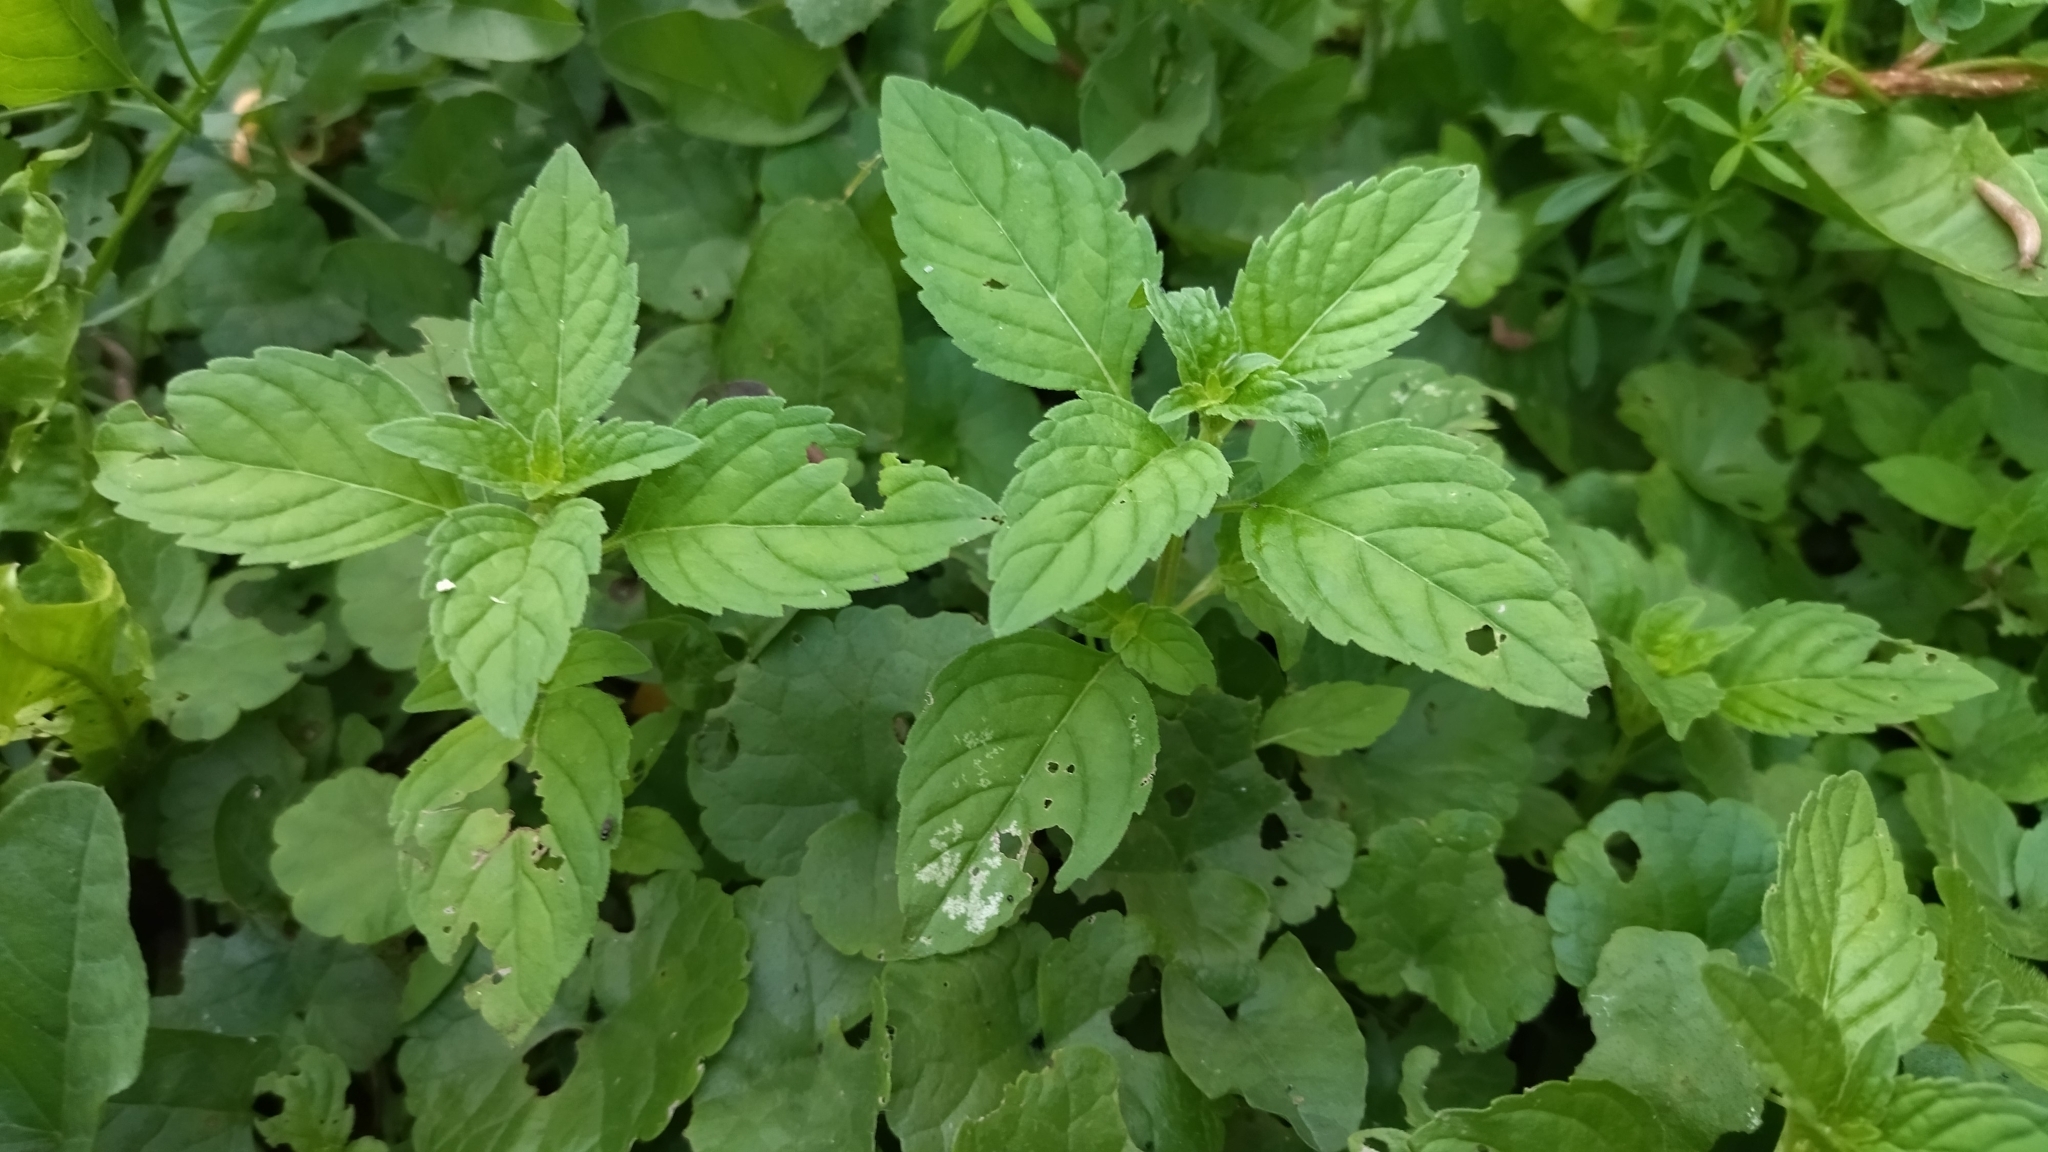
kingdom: Plantae
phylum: Tracheophyta
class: Magnoliopsida
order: Lamiales
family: Lamiaceae
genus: Mentha
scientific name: Mentha arvensis
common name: Corn mint
